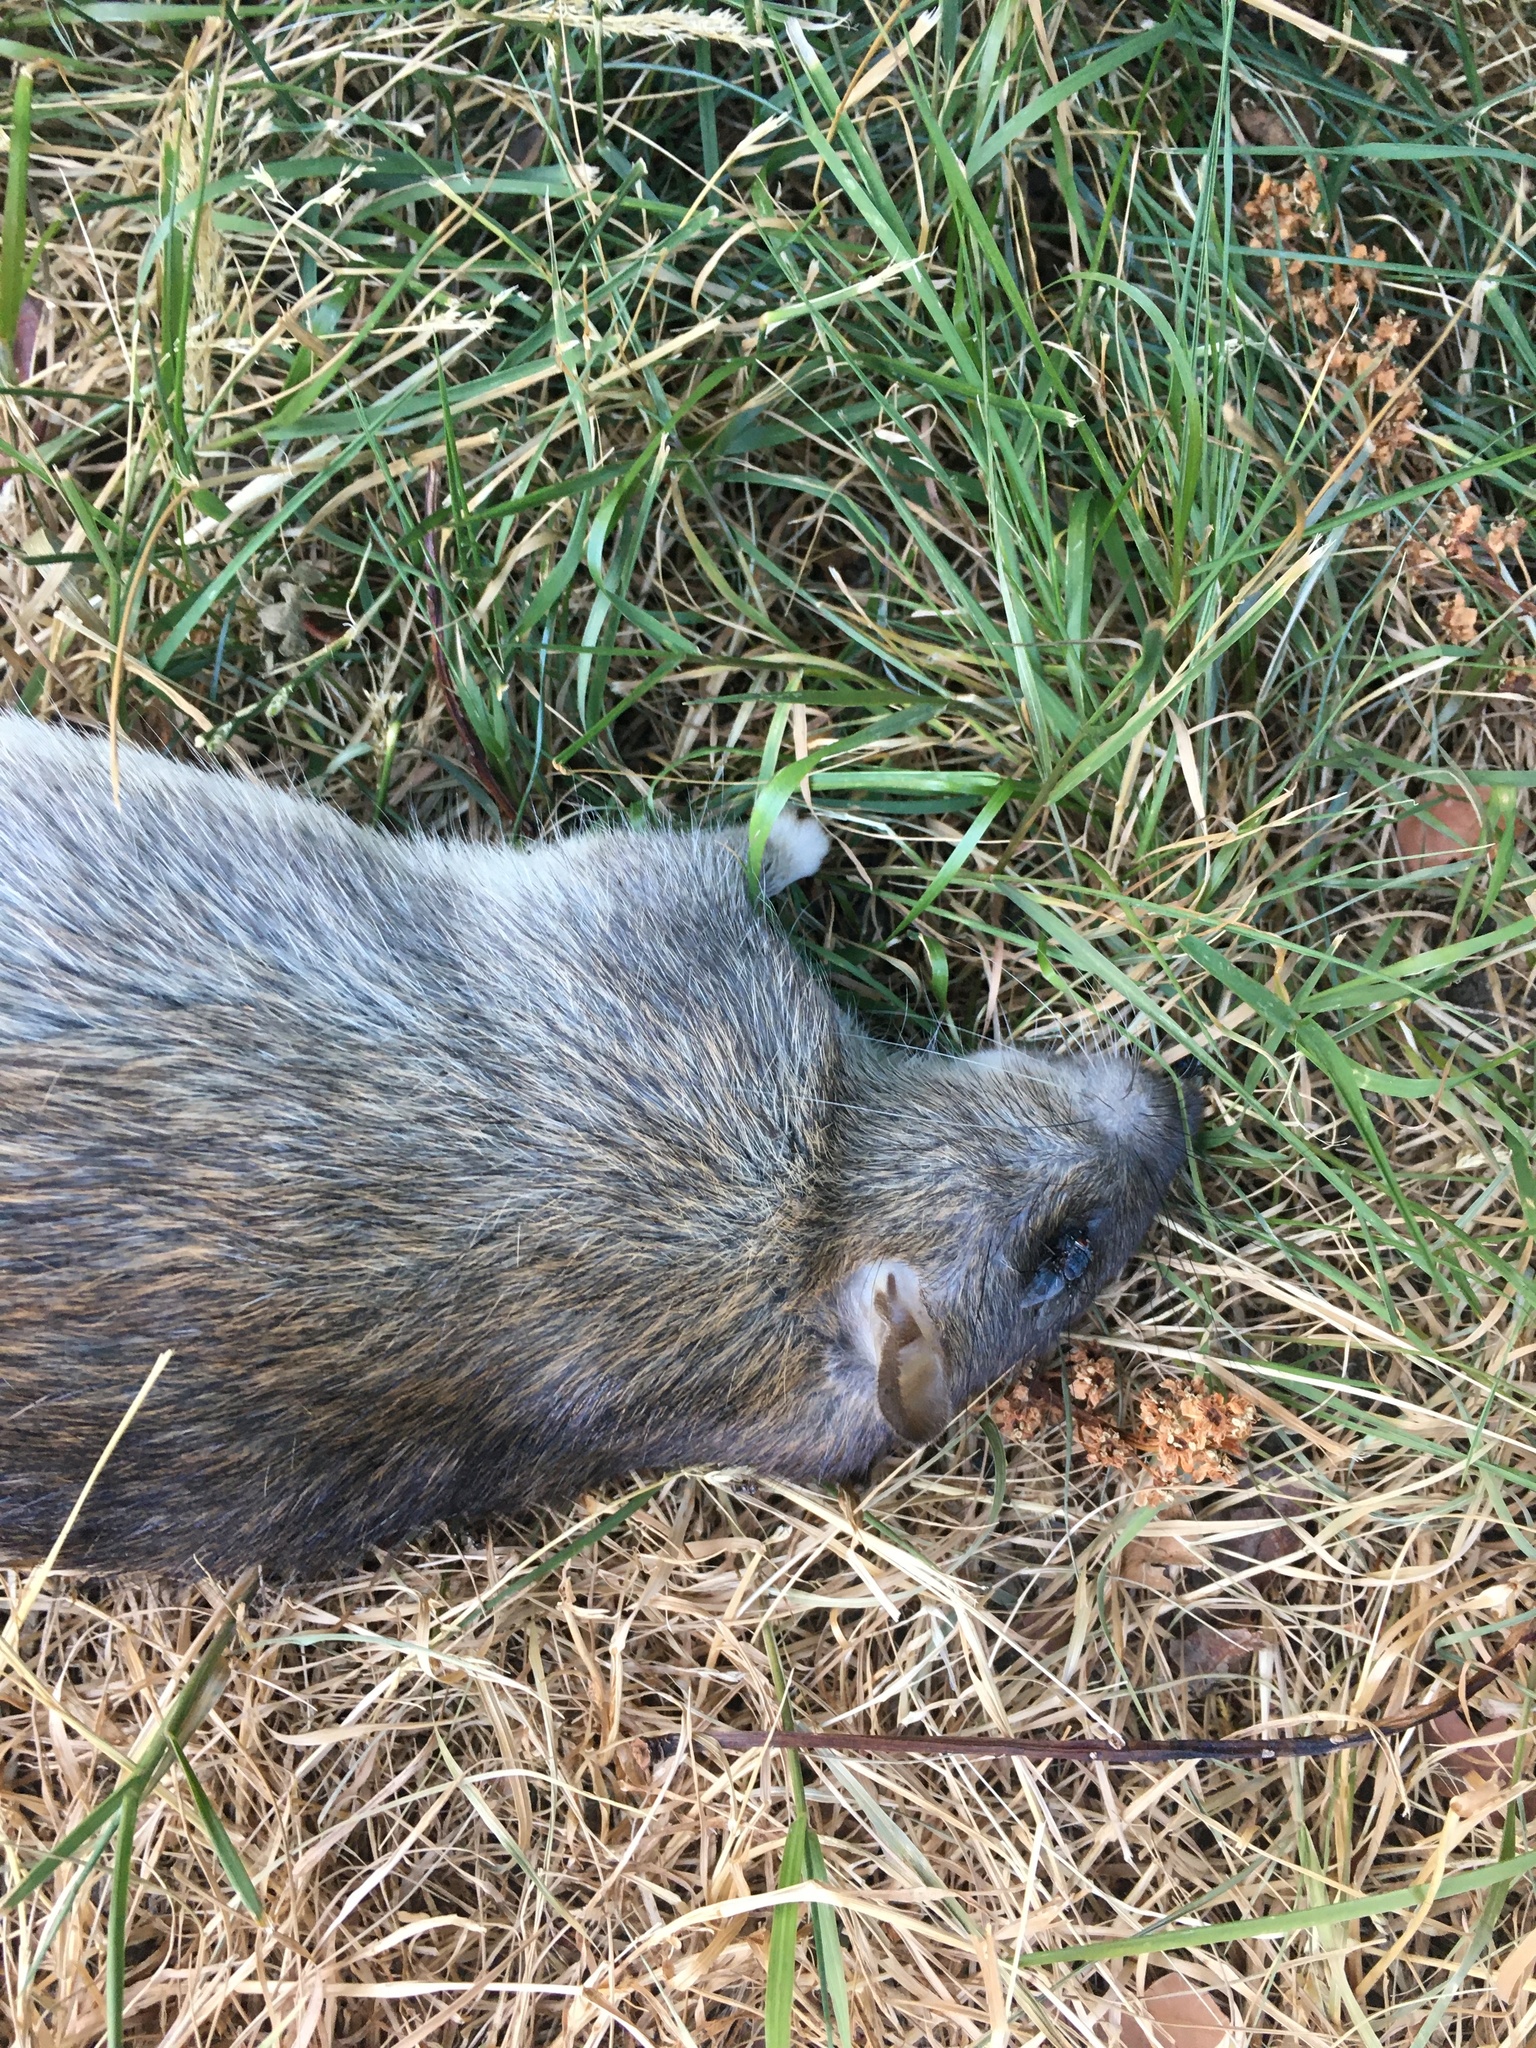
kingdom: Animalia
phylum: Chordata
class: Mammalia
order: Rodentia
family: Muridae
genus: Rattus
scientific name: Rattus norvegicus
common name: Brown rat
